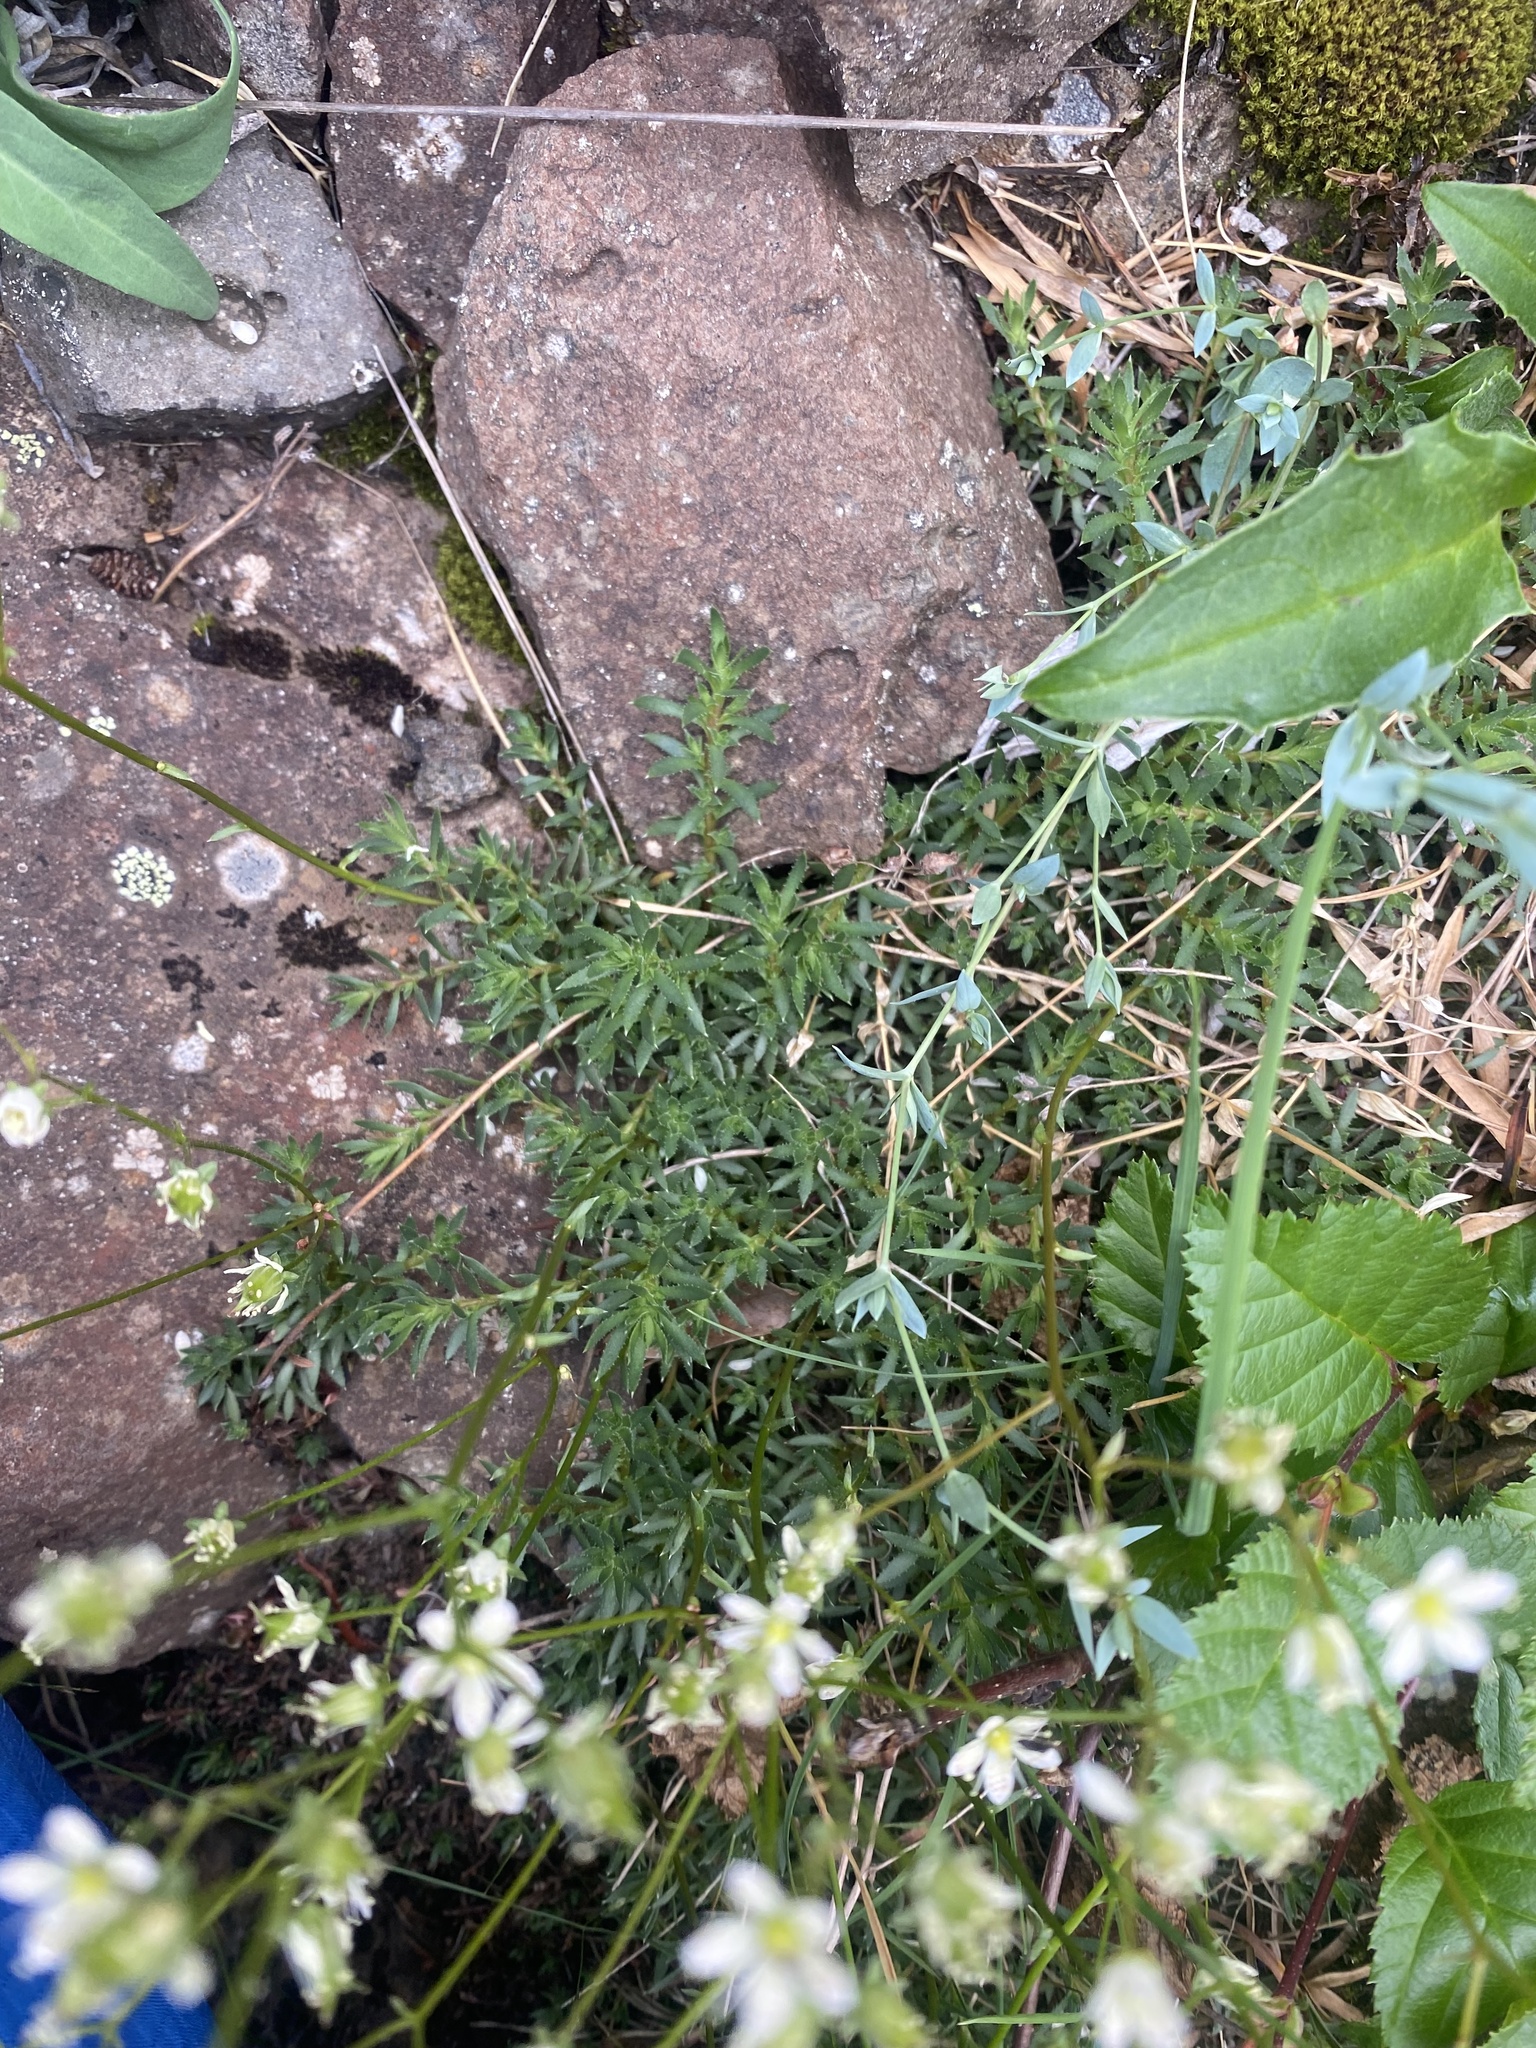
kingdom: Plantae
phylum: Tracheophyta
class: Magnoliopsida
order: Saxifragales
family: Saxifragaceae
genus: Saxifraga
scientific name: Saxifraga
